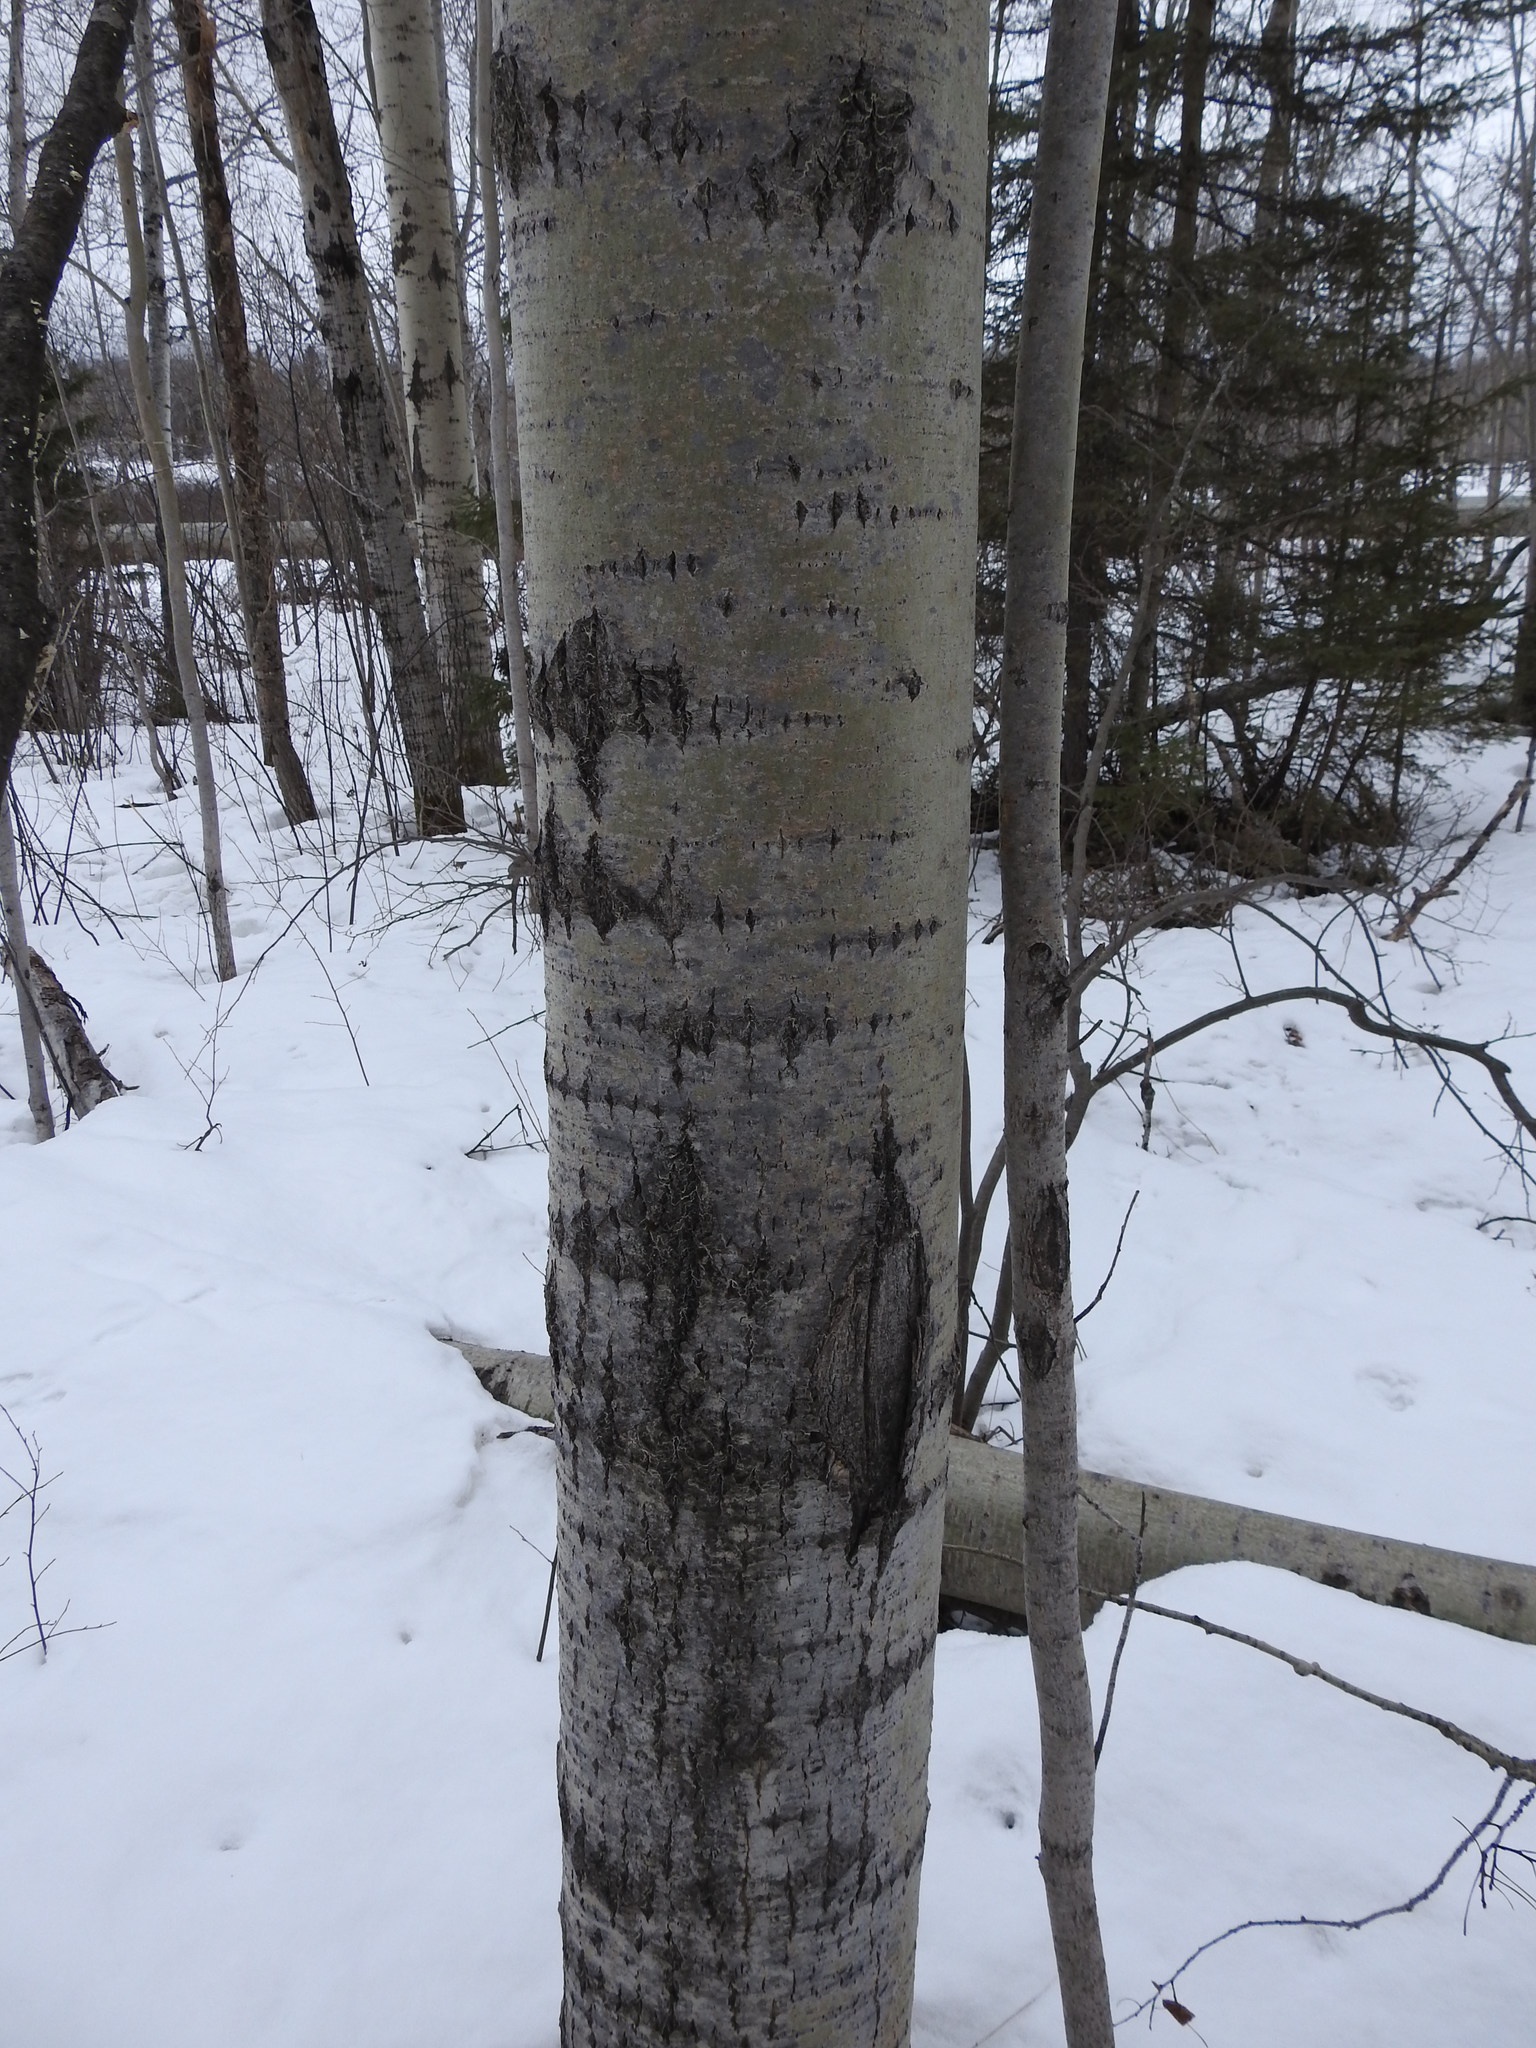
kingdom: Plantae
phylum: Tracheophyta
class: Magnoliopsida
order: Malpighiales
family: Salicaceae
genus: Populus
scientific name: Populus tremuloides
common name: Quaking aspen
